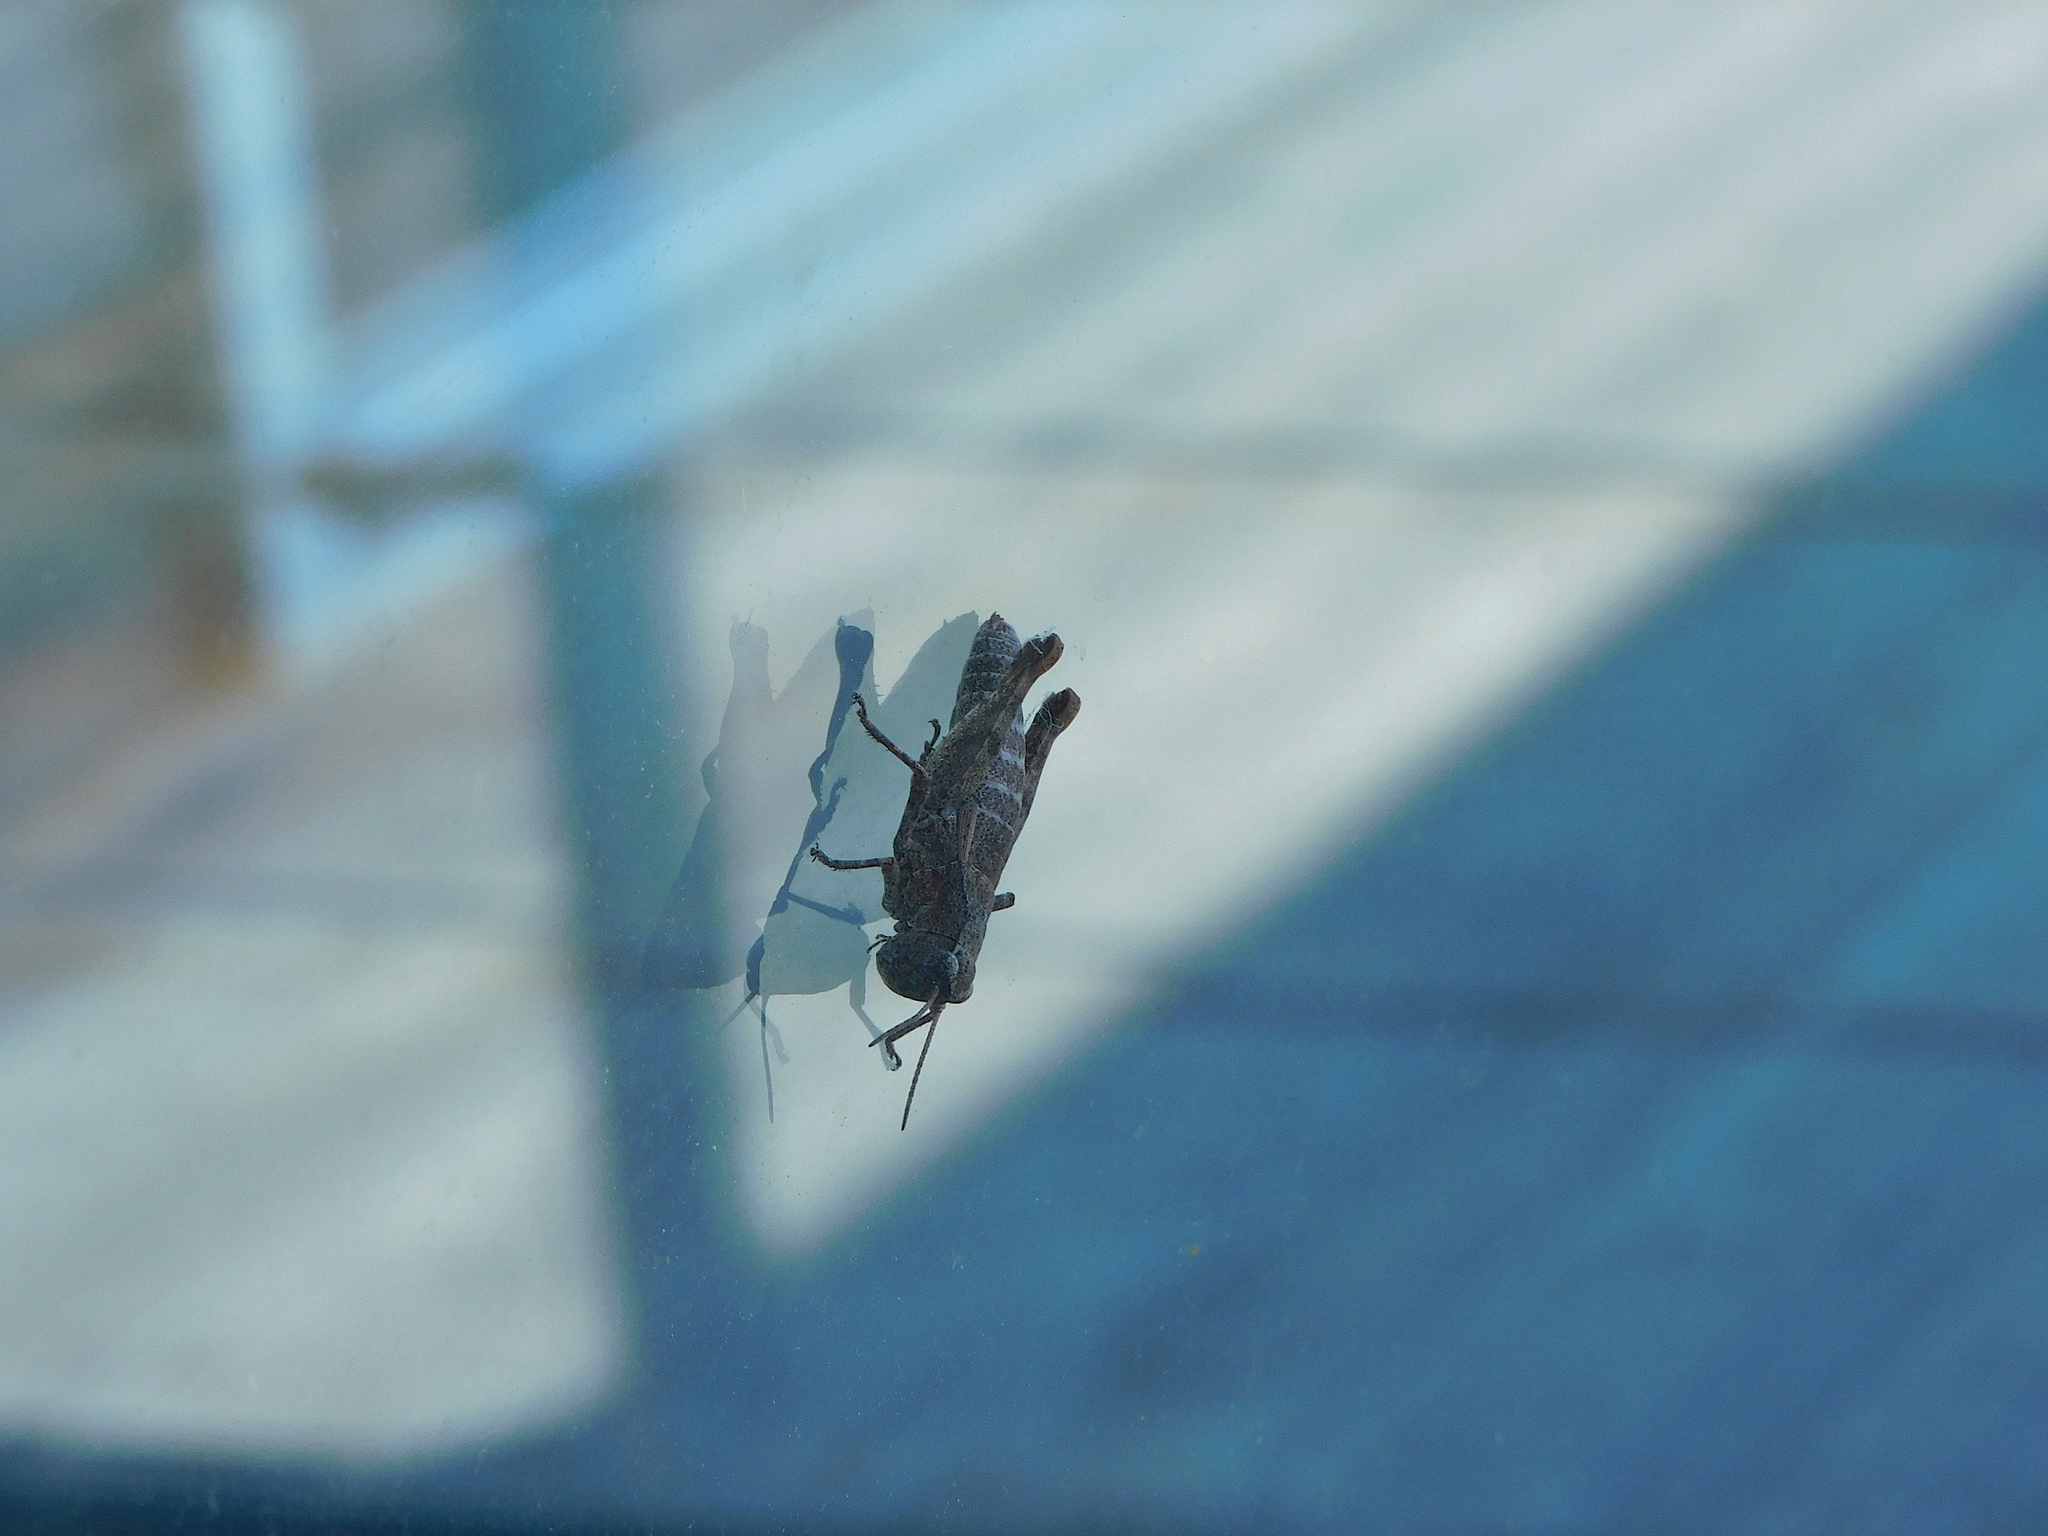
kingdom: Animalia
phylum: Arthropoda
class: Insecta
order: Orthoptera
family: Acrididae
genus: Tasmaniacris
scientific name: Tasmaniacris tasmaniensis
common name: Tasmanian grasshopper
